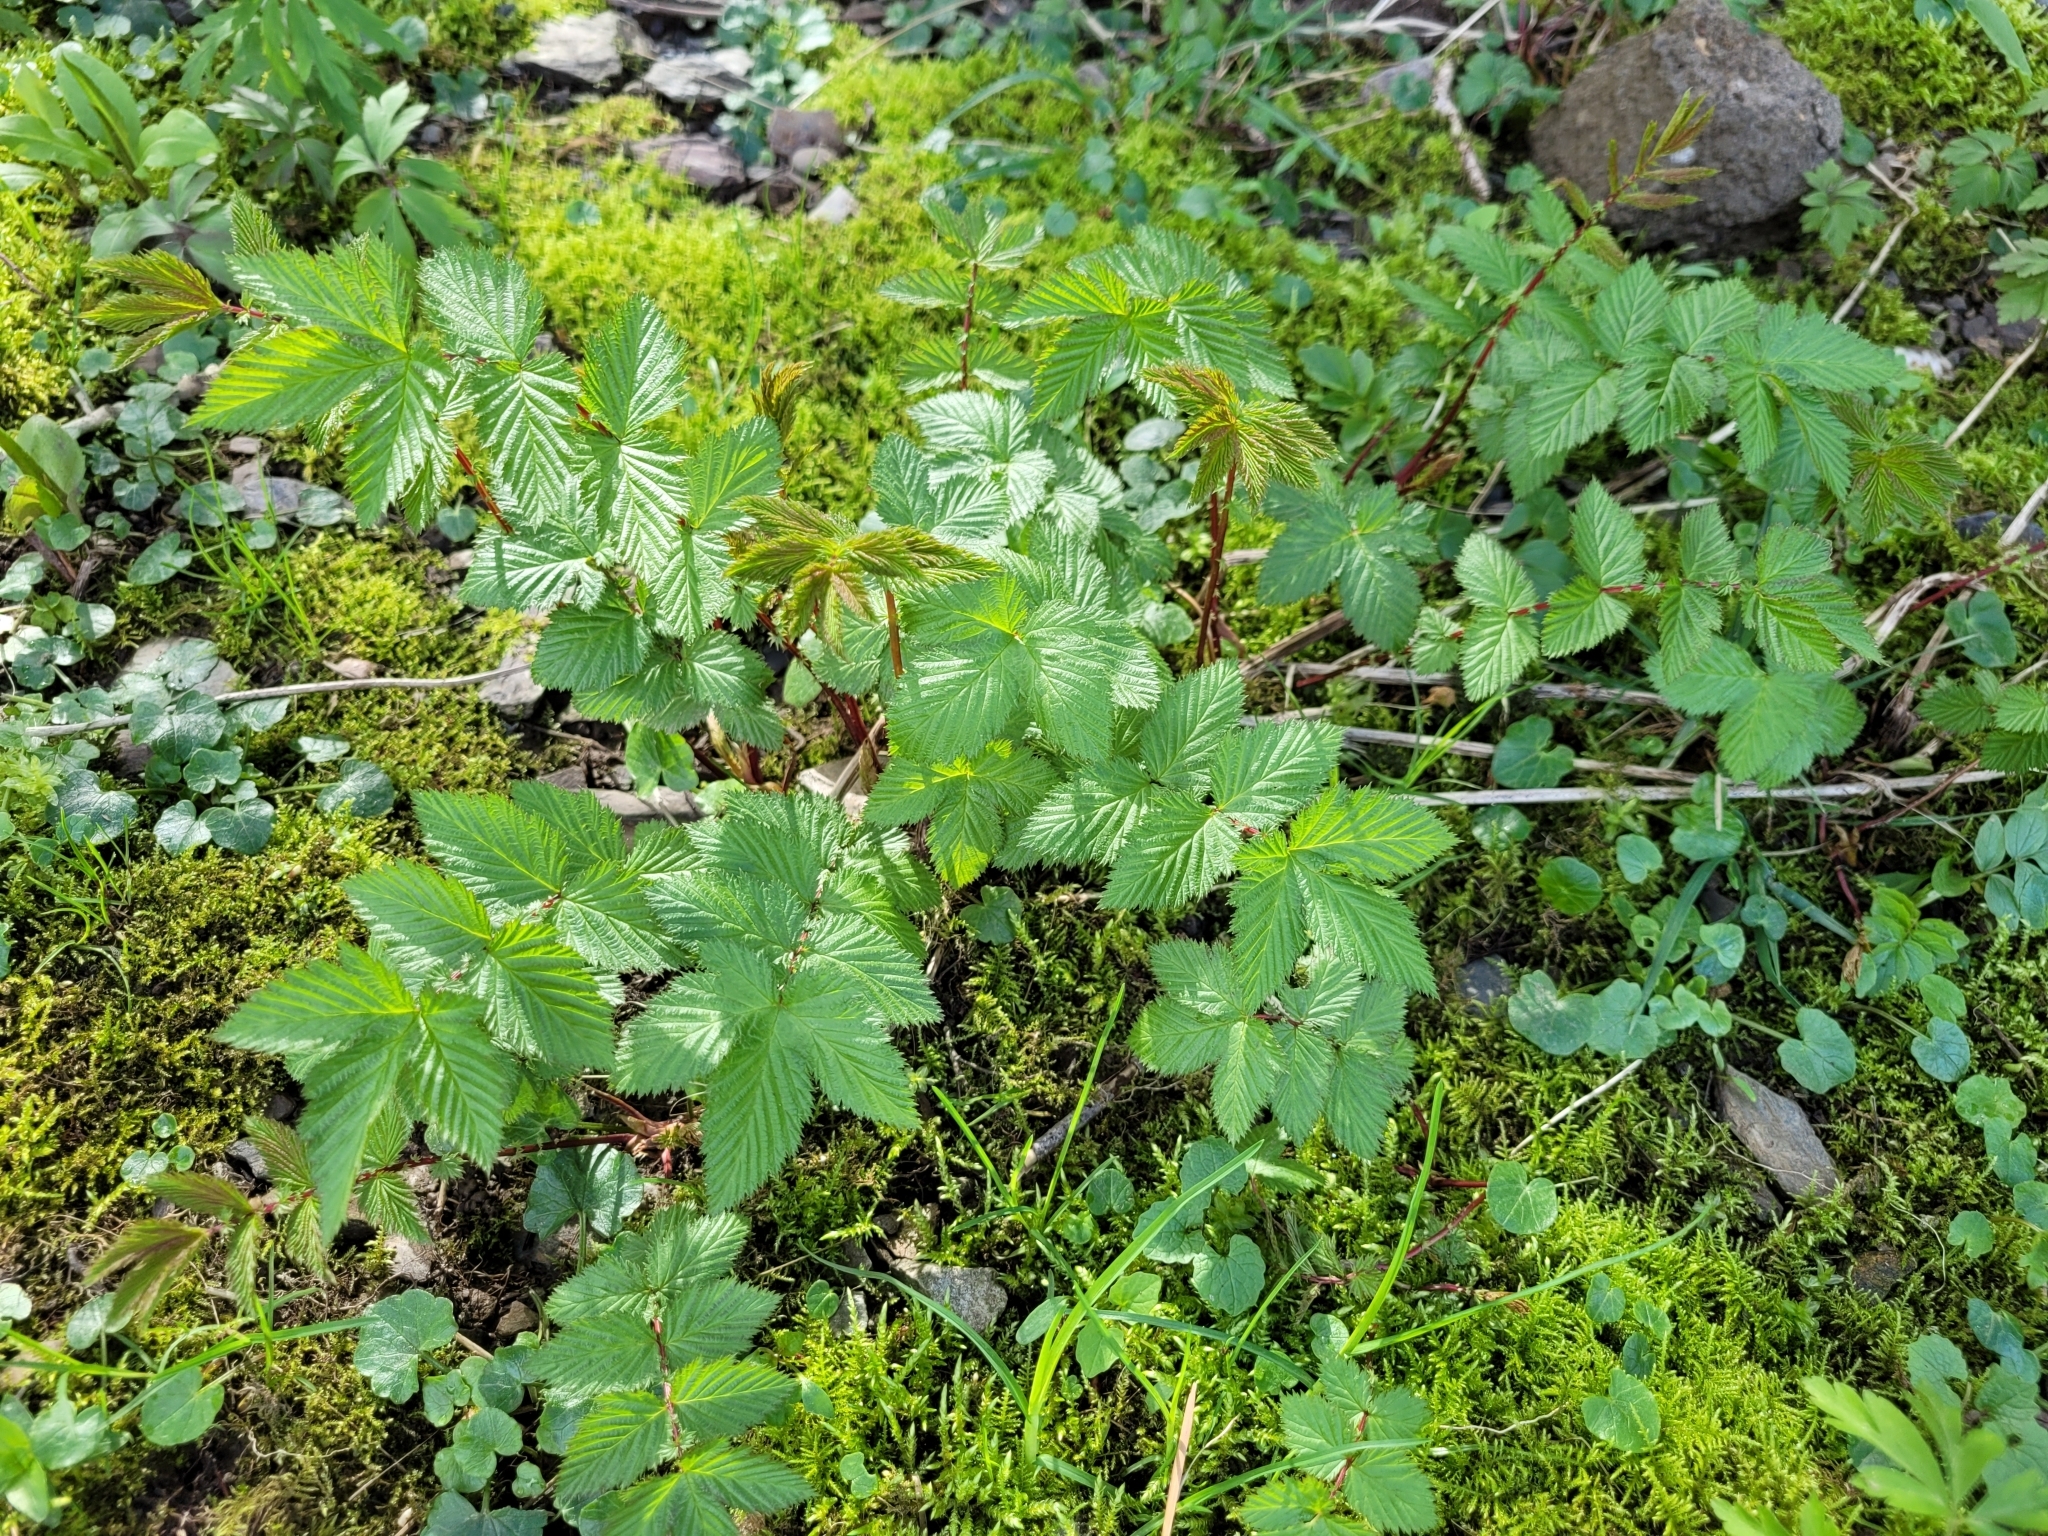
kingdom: Plantae
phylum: Tracheophyta
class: Magnoliopsida
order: Rosales
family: Rosaceae
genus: Filipendula
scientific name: Filipendula ulmaria
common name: Meadowsweet
